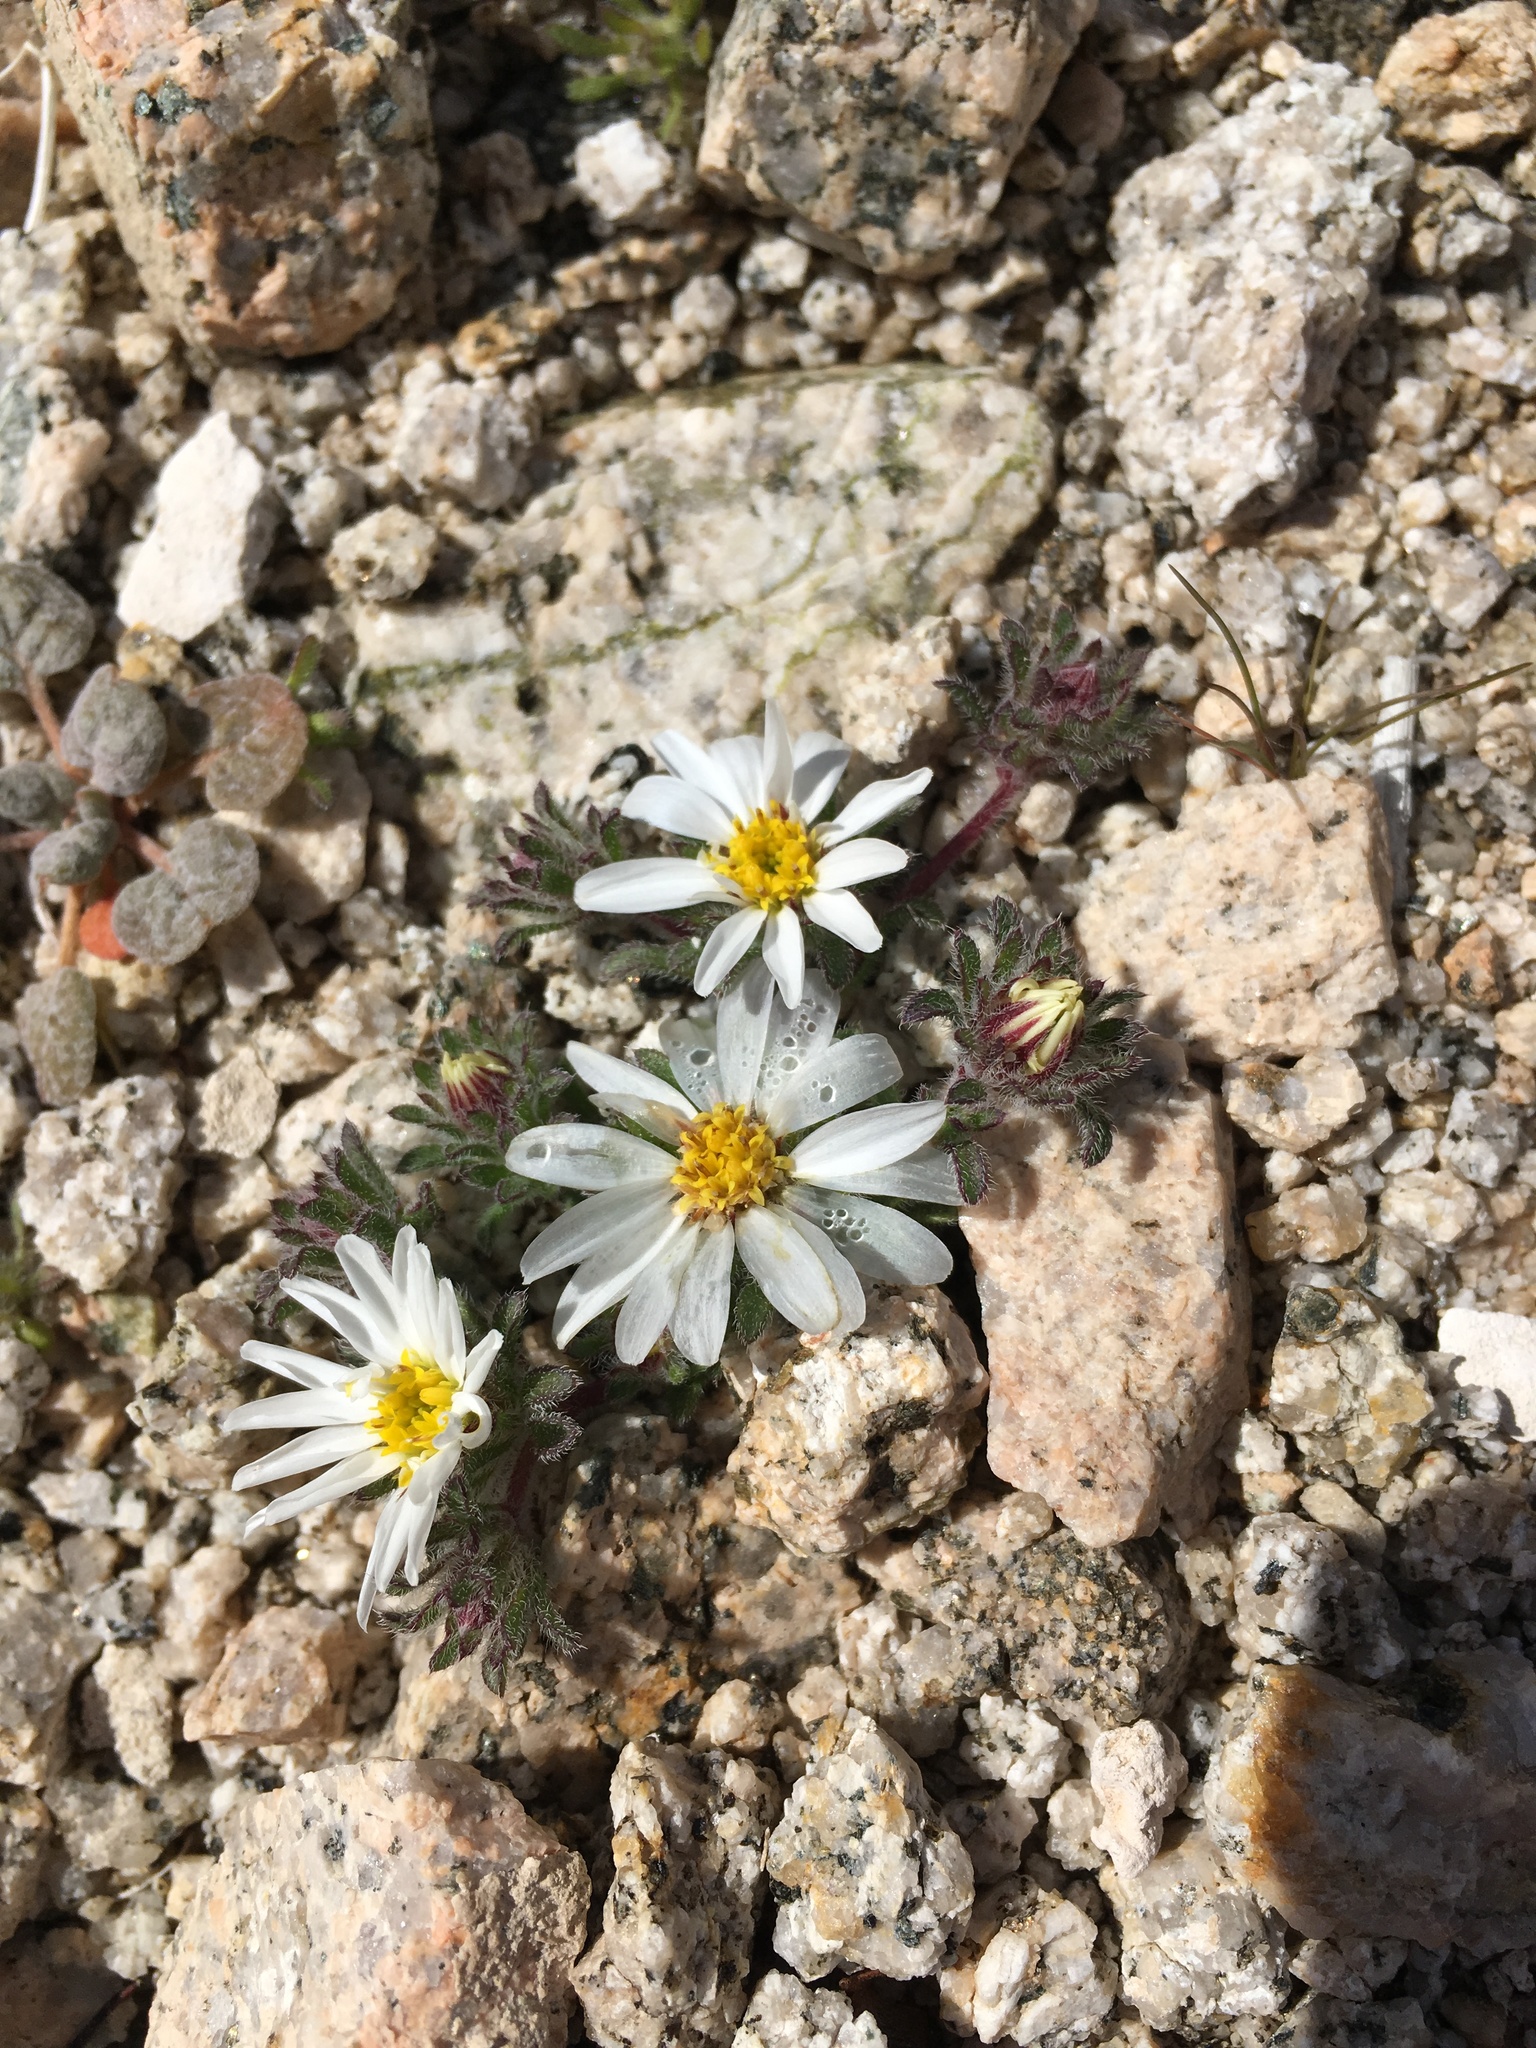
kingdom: Plantae
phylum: Tracheophyta
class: Magnoliopsida
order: Asterales
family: Asteraceae
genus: Monoptilon
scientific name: Monoptilon bellioides
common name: Bristly desertstar
